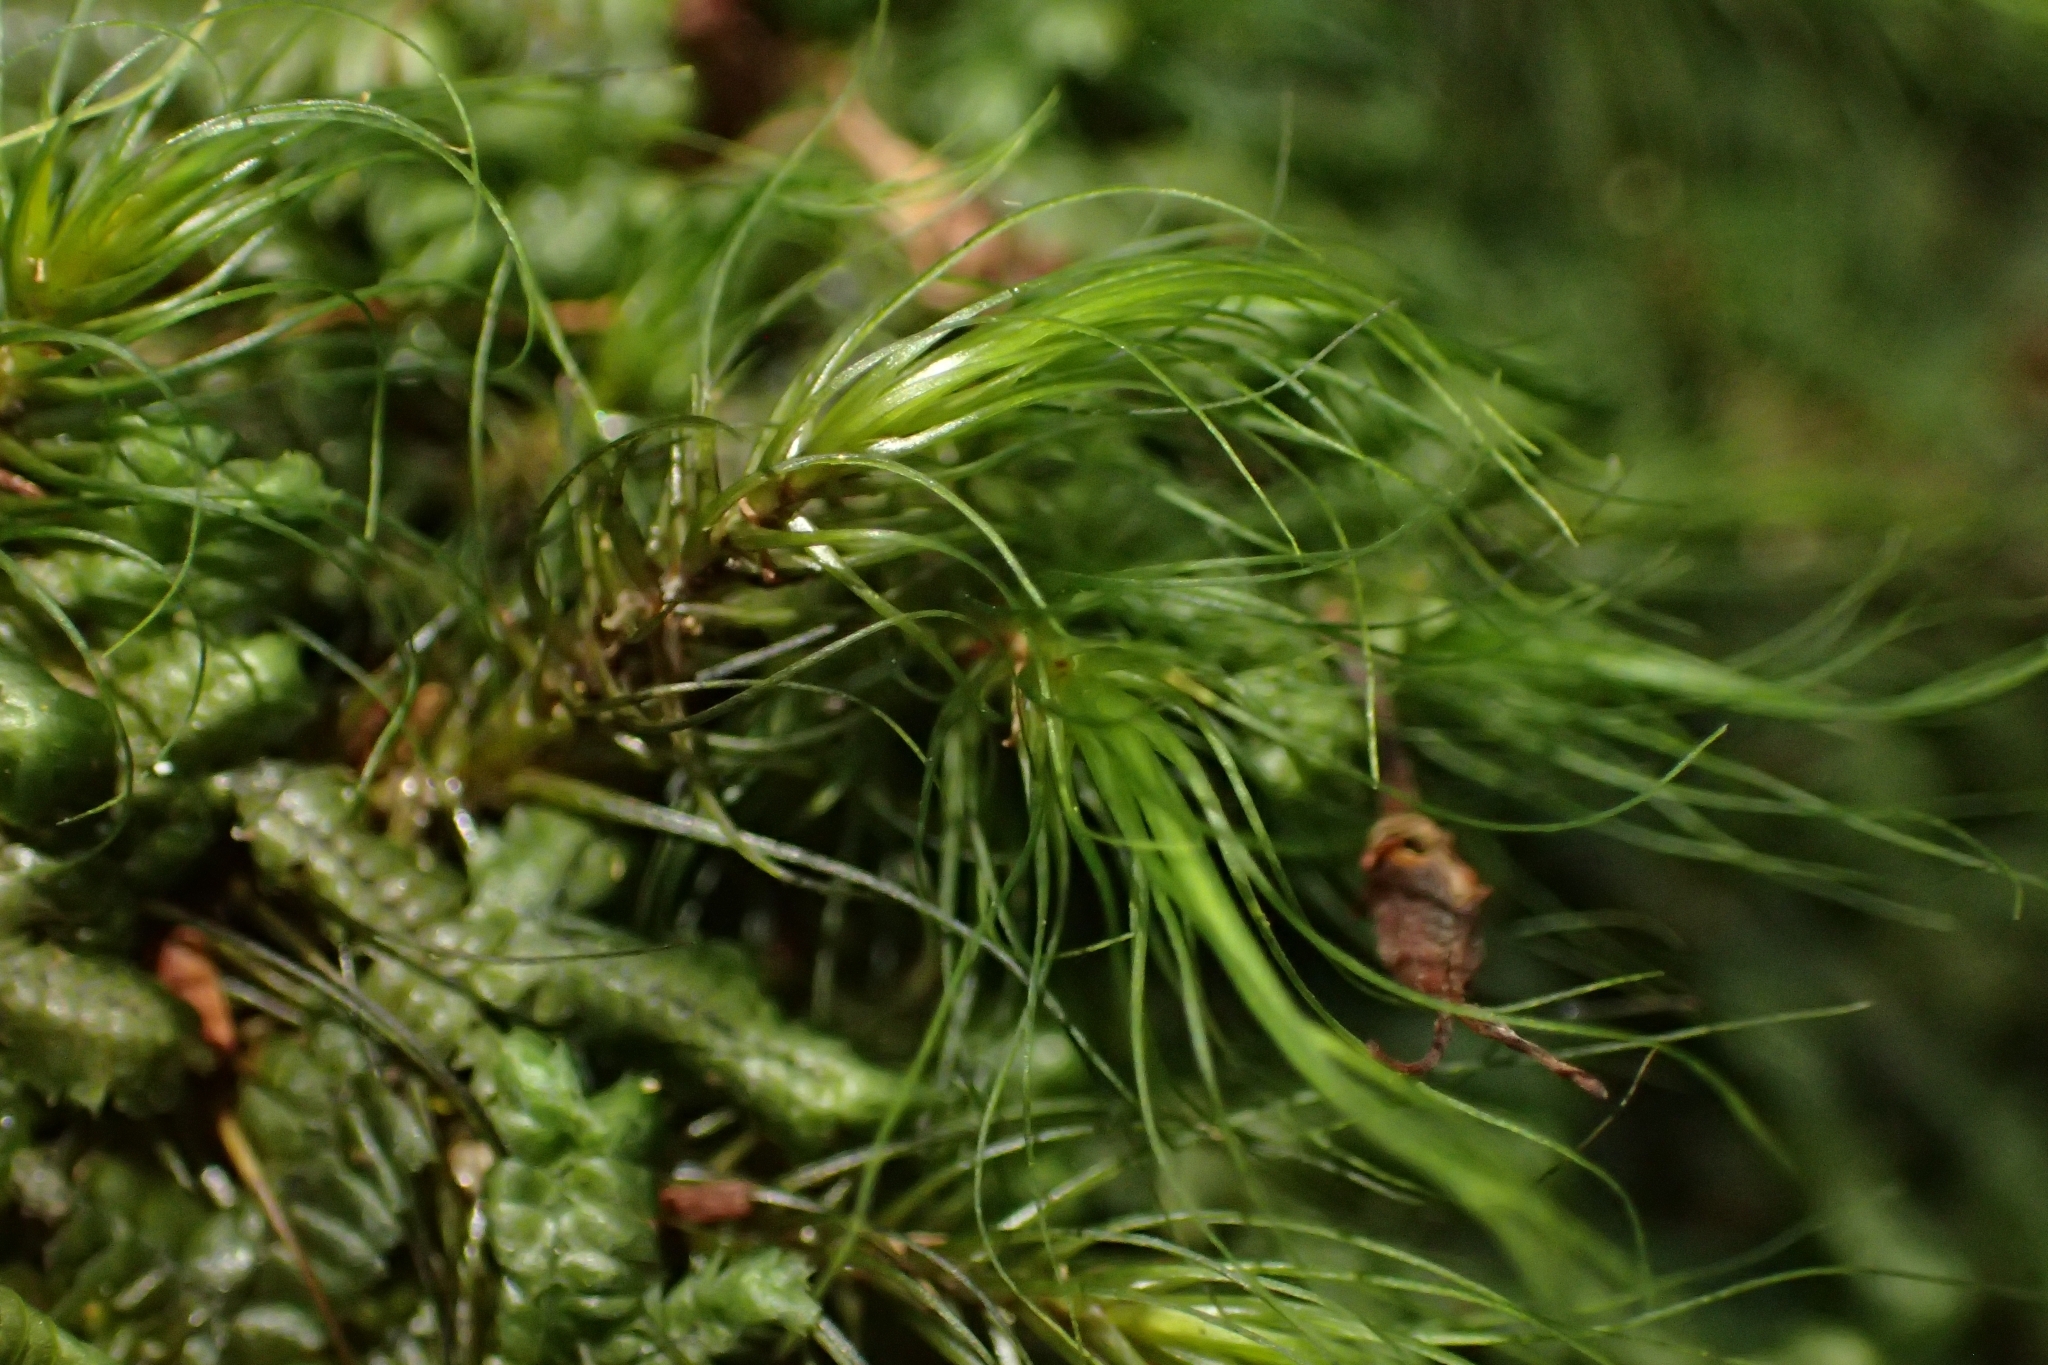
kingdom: Plantae
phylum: Bryophyta
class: Bryopsida
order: Dicranales
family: Dicranaceae
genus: Dicranoloma
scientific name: Dicranoloma menziesii
